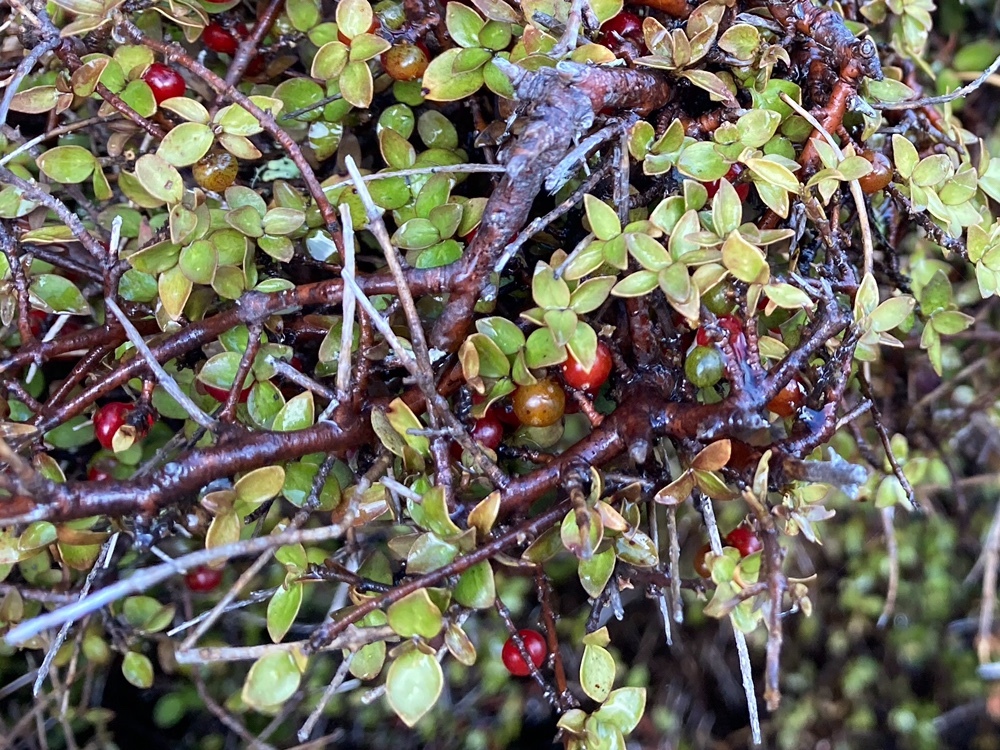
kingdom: Plantae
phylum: Tracheophyta
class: Magnoliopsida
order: Gentianales
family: Rubiaceae
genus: Coprosma
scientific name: Coprosma rhamnoides
